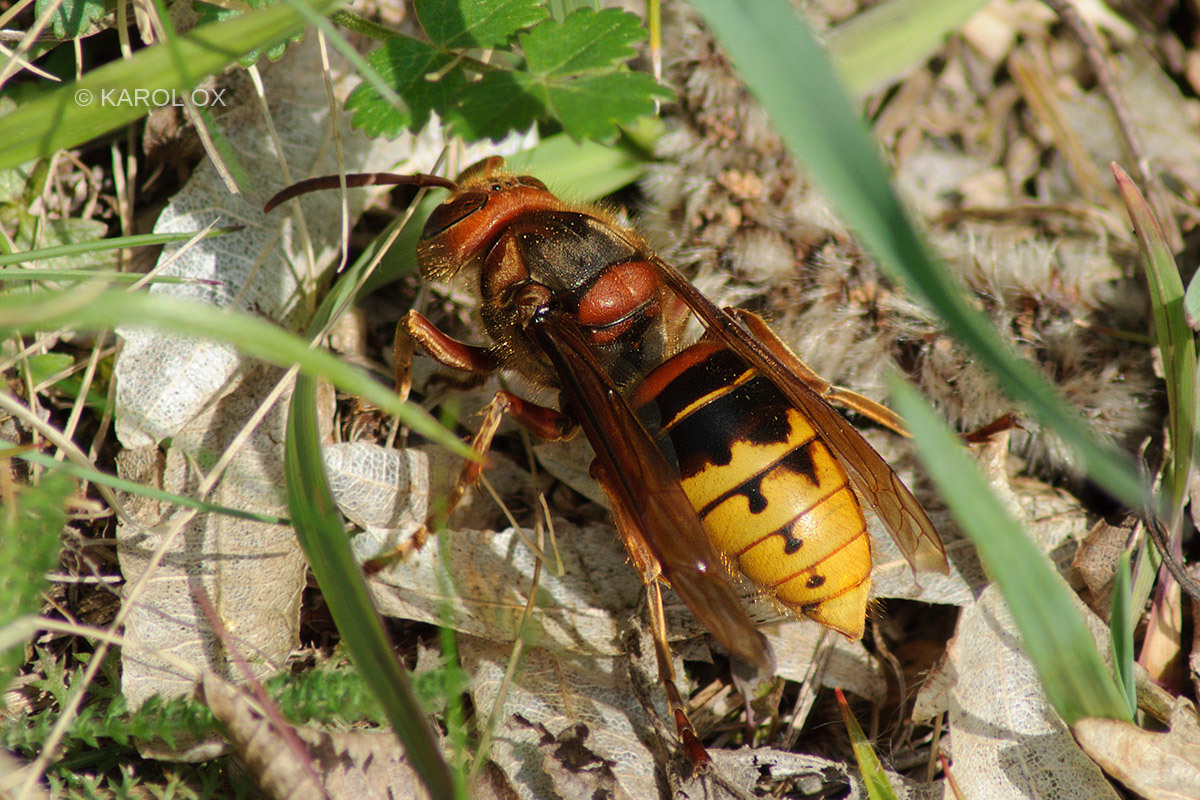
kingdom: Animalia
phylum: Arthropoda
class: Insecta
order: Hymenoptera
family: Vespidae
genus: Vespa
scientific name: Vespa crabro
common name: Hornet
